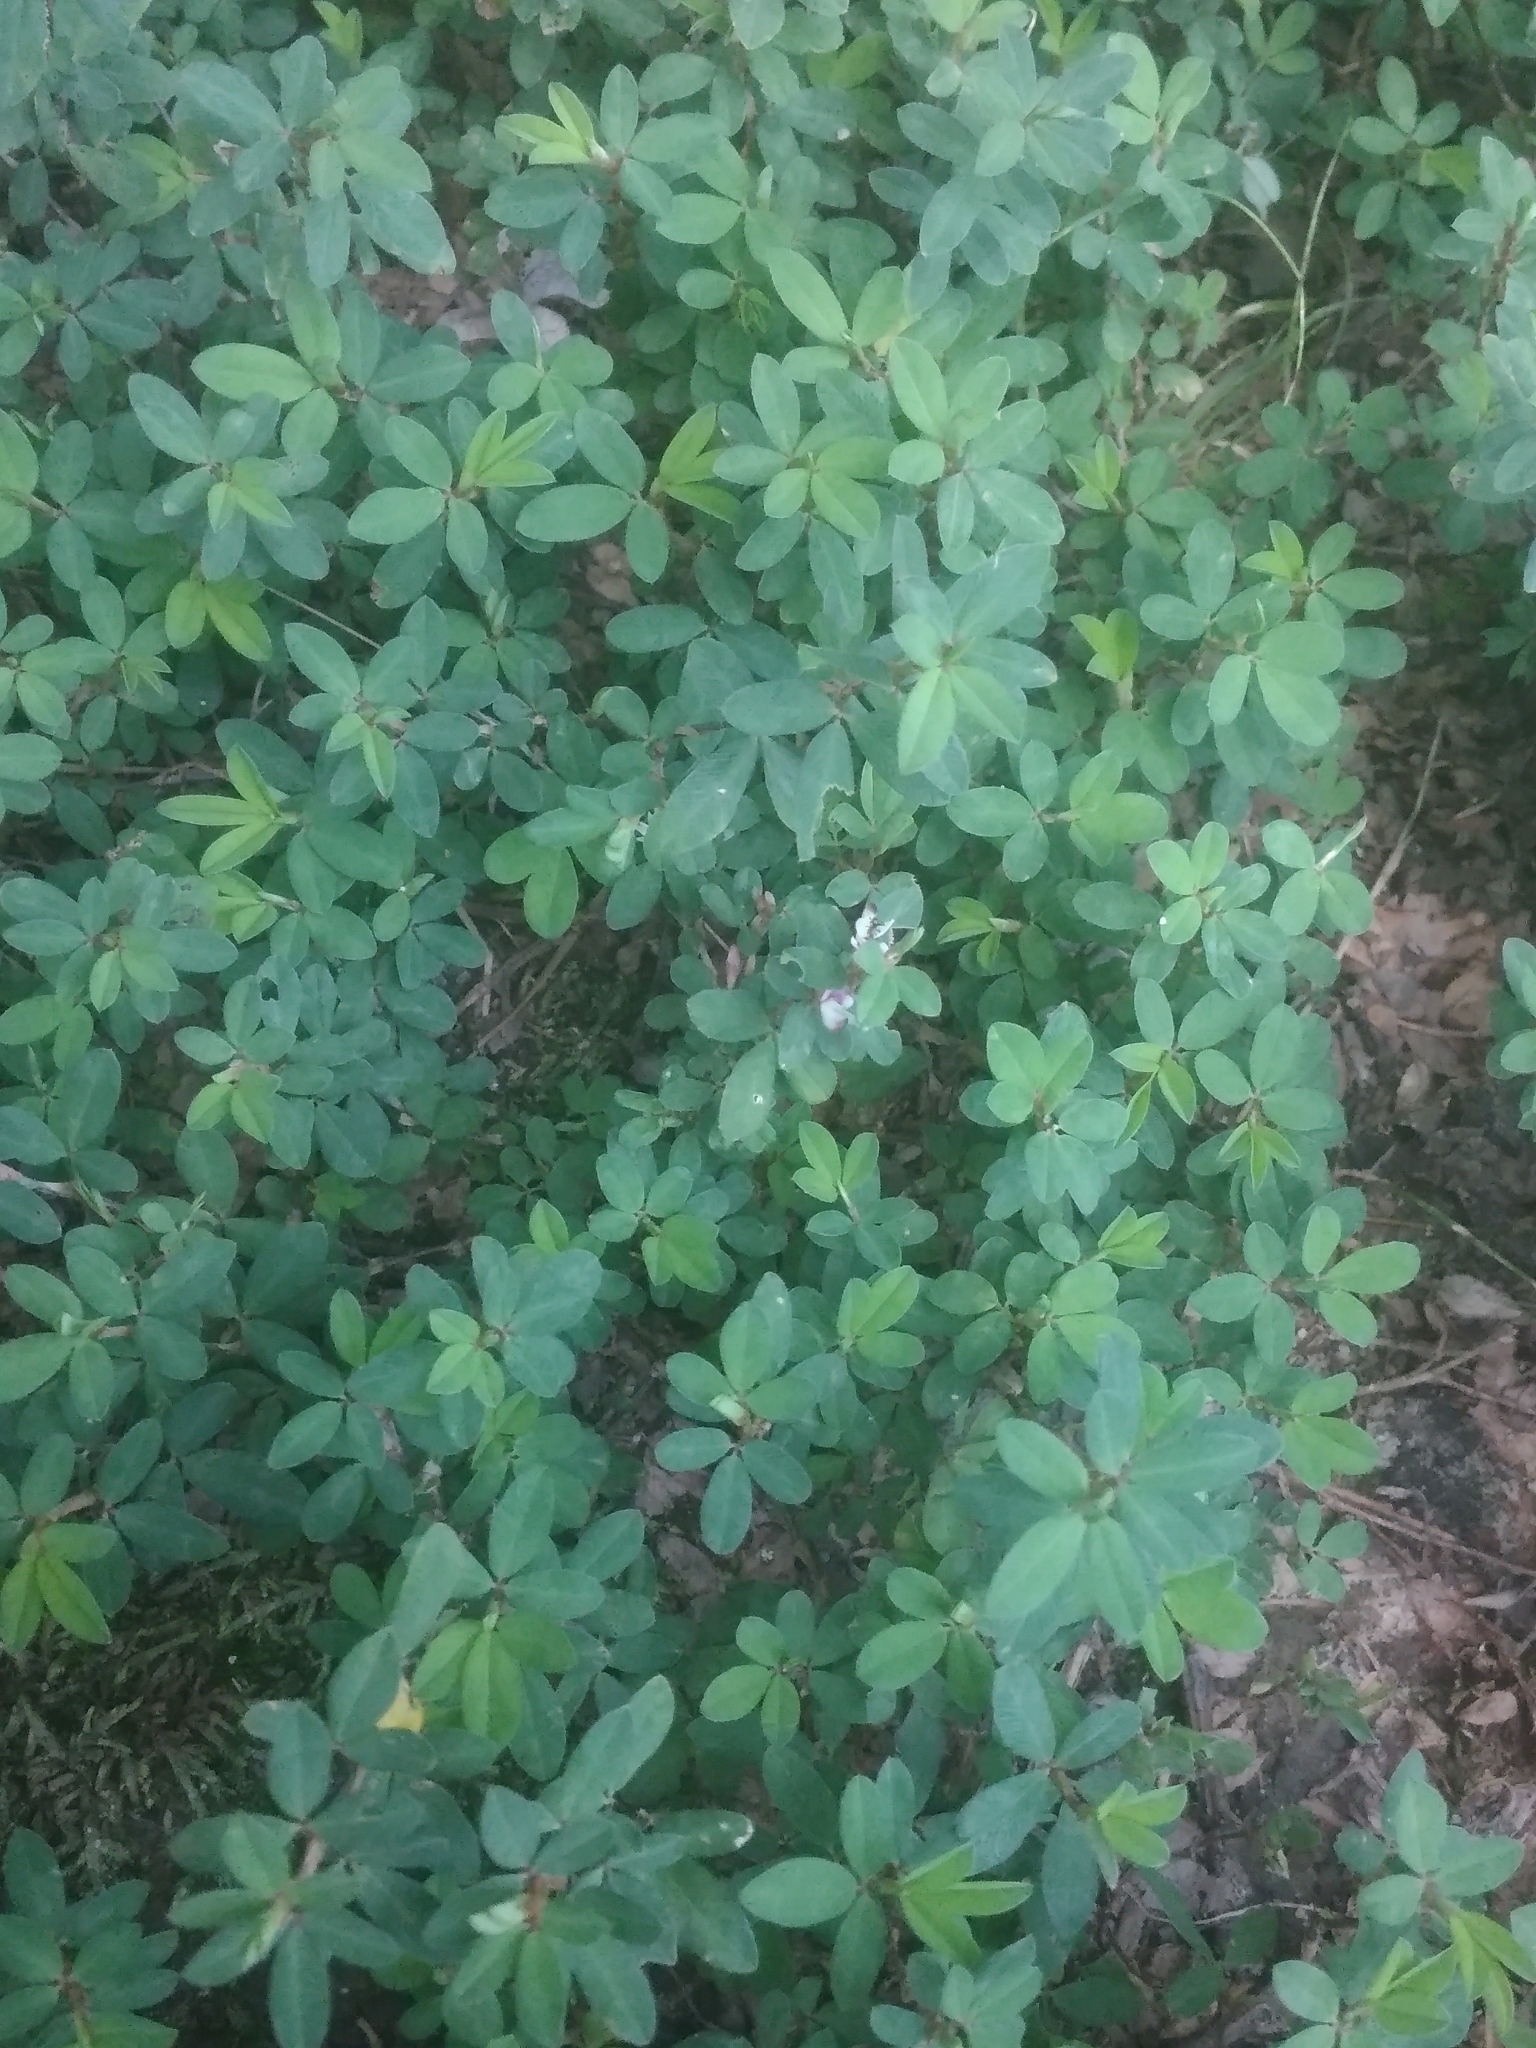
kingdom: Plantae
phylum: Tracheophyta
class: Magnoliopsida
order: Fabales
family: Fabaceae
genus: Kummerowia
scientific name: Kummerowia striata
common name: Japanese clover
